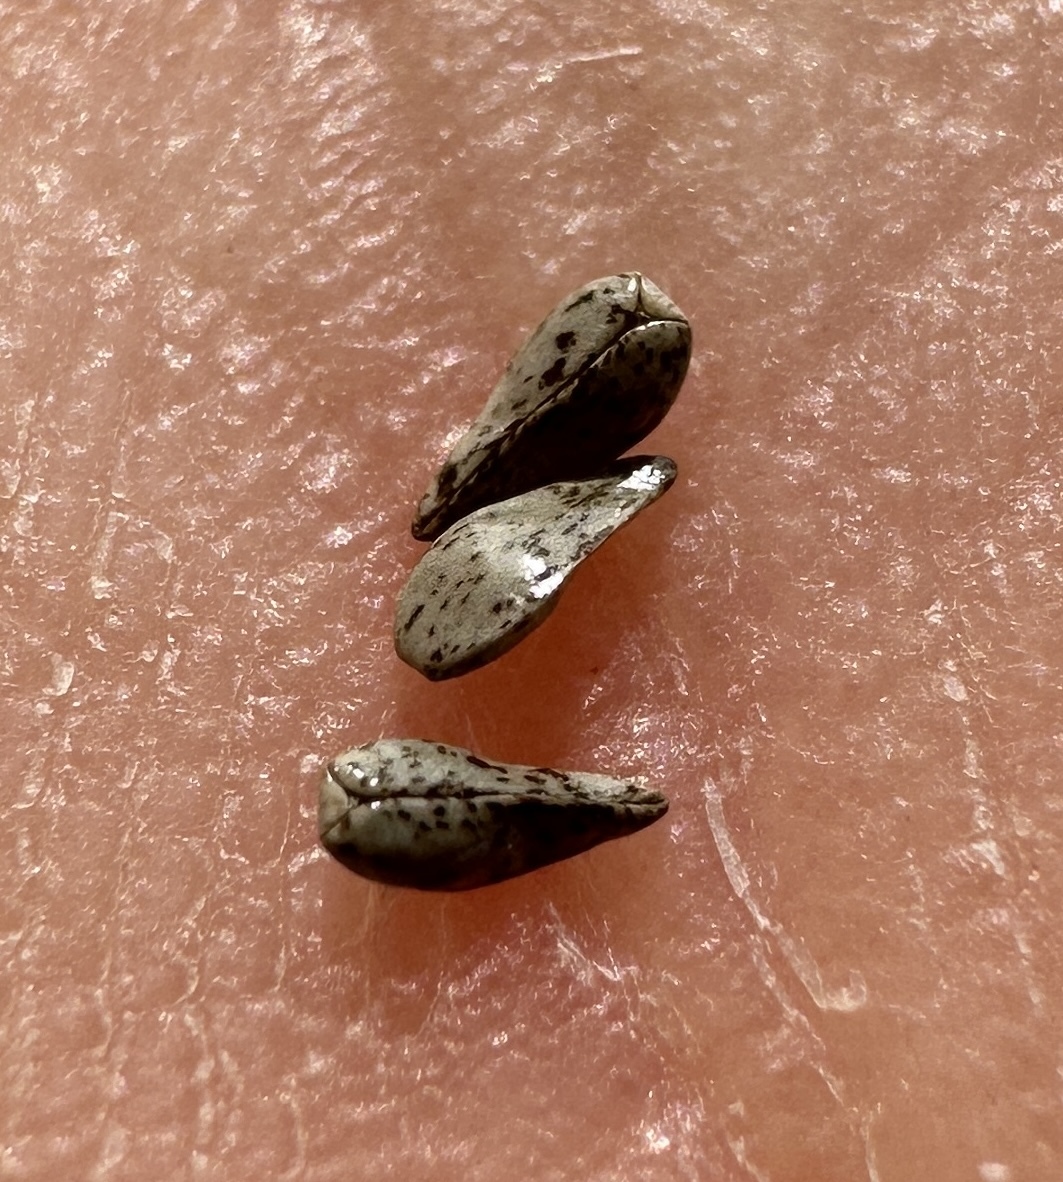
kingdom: Plantae
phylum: Tracheophyta
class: Magnoliopsida
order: Boraginales
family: Boraginaceae
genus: Cryptantha
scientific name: Cryptantha watsonii
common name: Watson's cat's-eye
